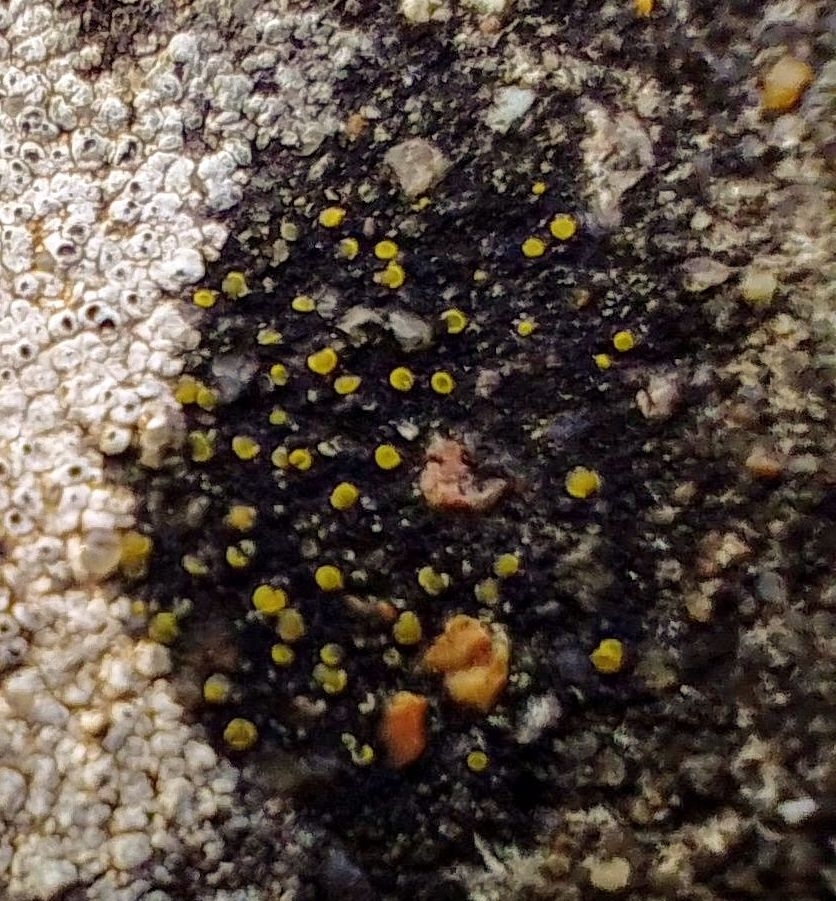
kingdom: Fungi
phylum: Ascomycota
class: Candelariomycetes
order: Candelariales
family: Candelariaceae
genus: Candelariella
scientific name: Candelariella aurella
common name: Hidden goldspeck lichen
